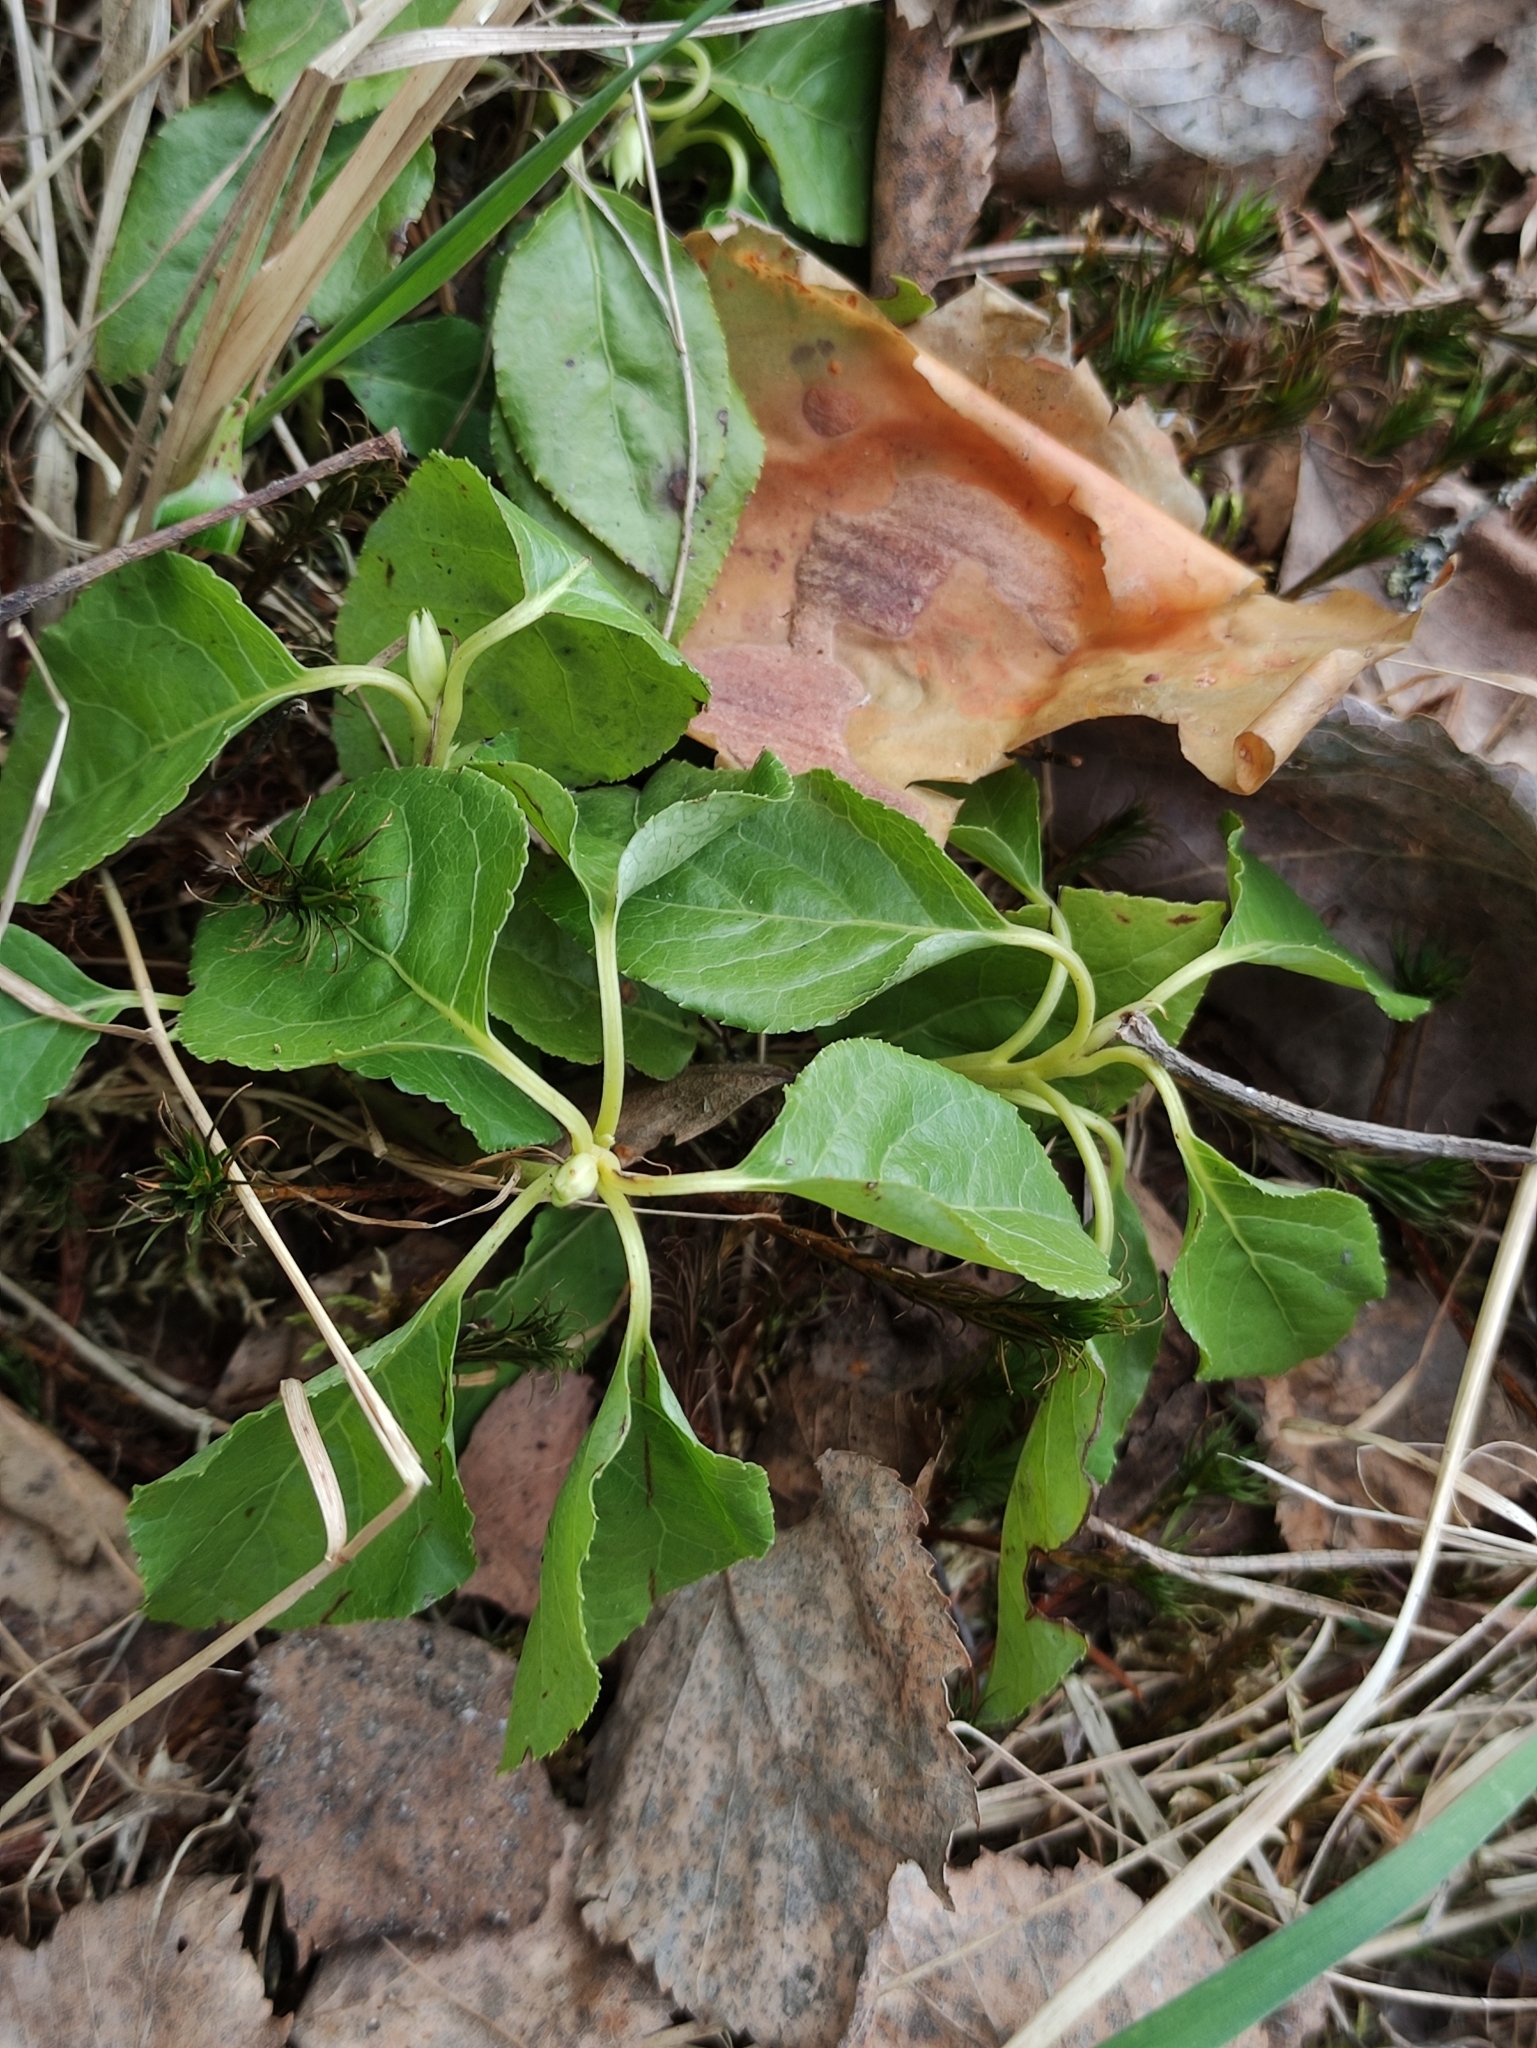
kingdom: Plantae
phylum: Tracheophyta
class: Magnoliopsida
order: Ericales
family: Ericaceae
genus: Orthilia
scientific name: Orthilia secunda
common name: One-sided orthilia
